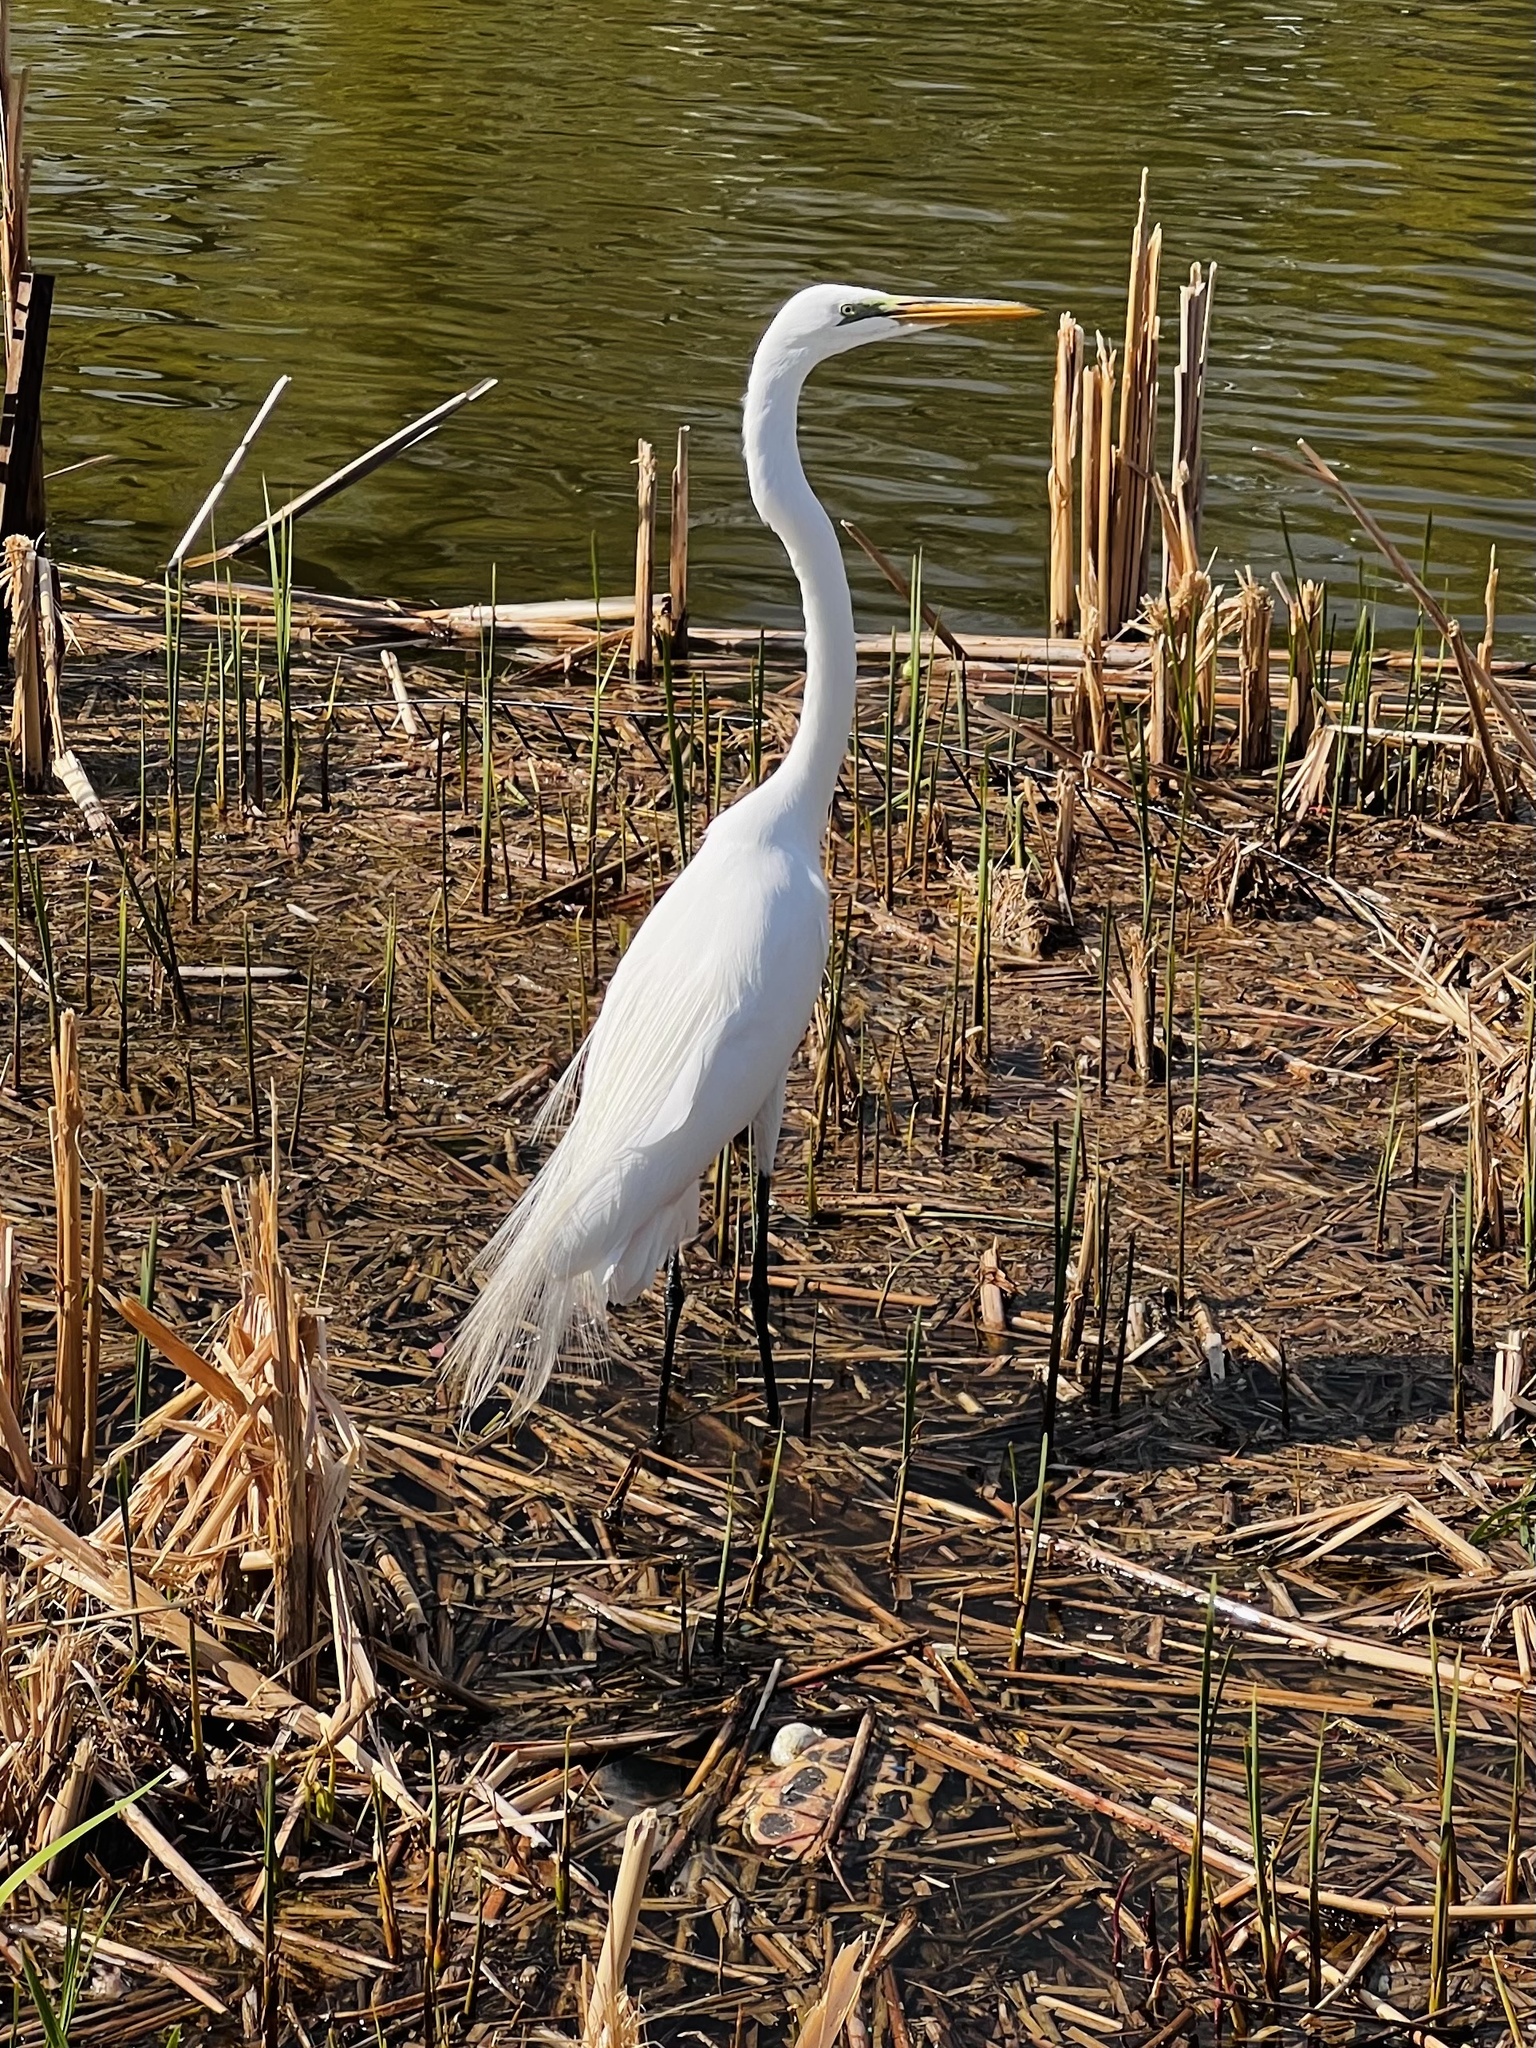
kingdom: Animalia
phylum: Chordata
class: Aves
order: Pelecaniformes
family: Ardeidae
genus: Ardea
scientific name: Ardea alba
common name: Great egret
